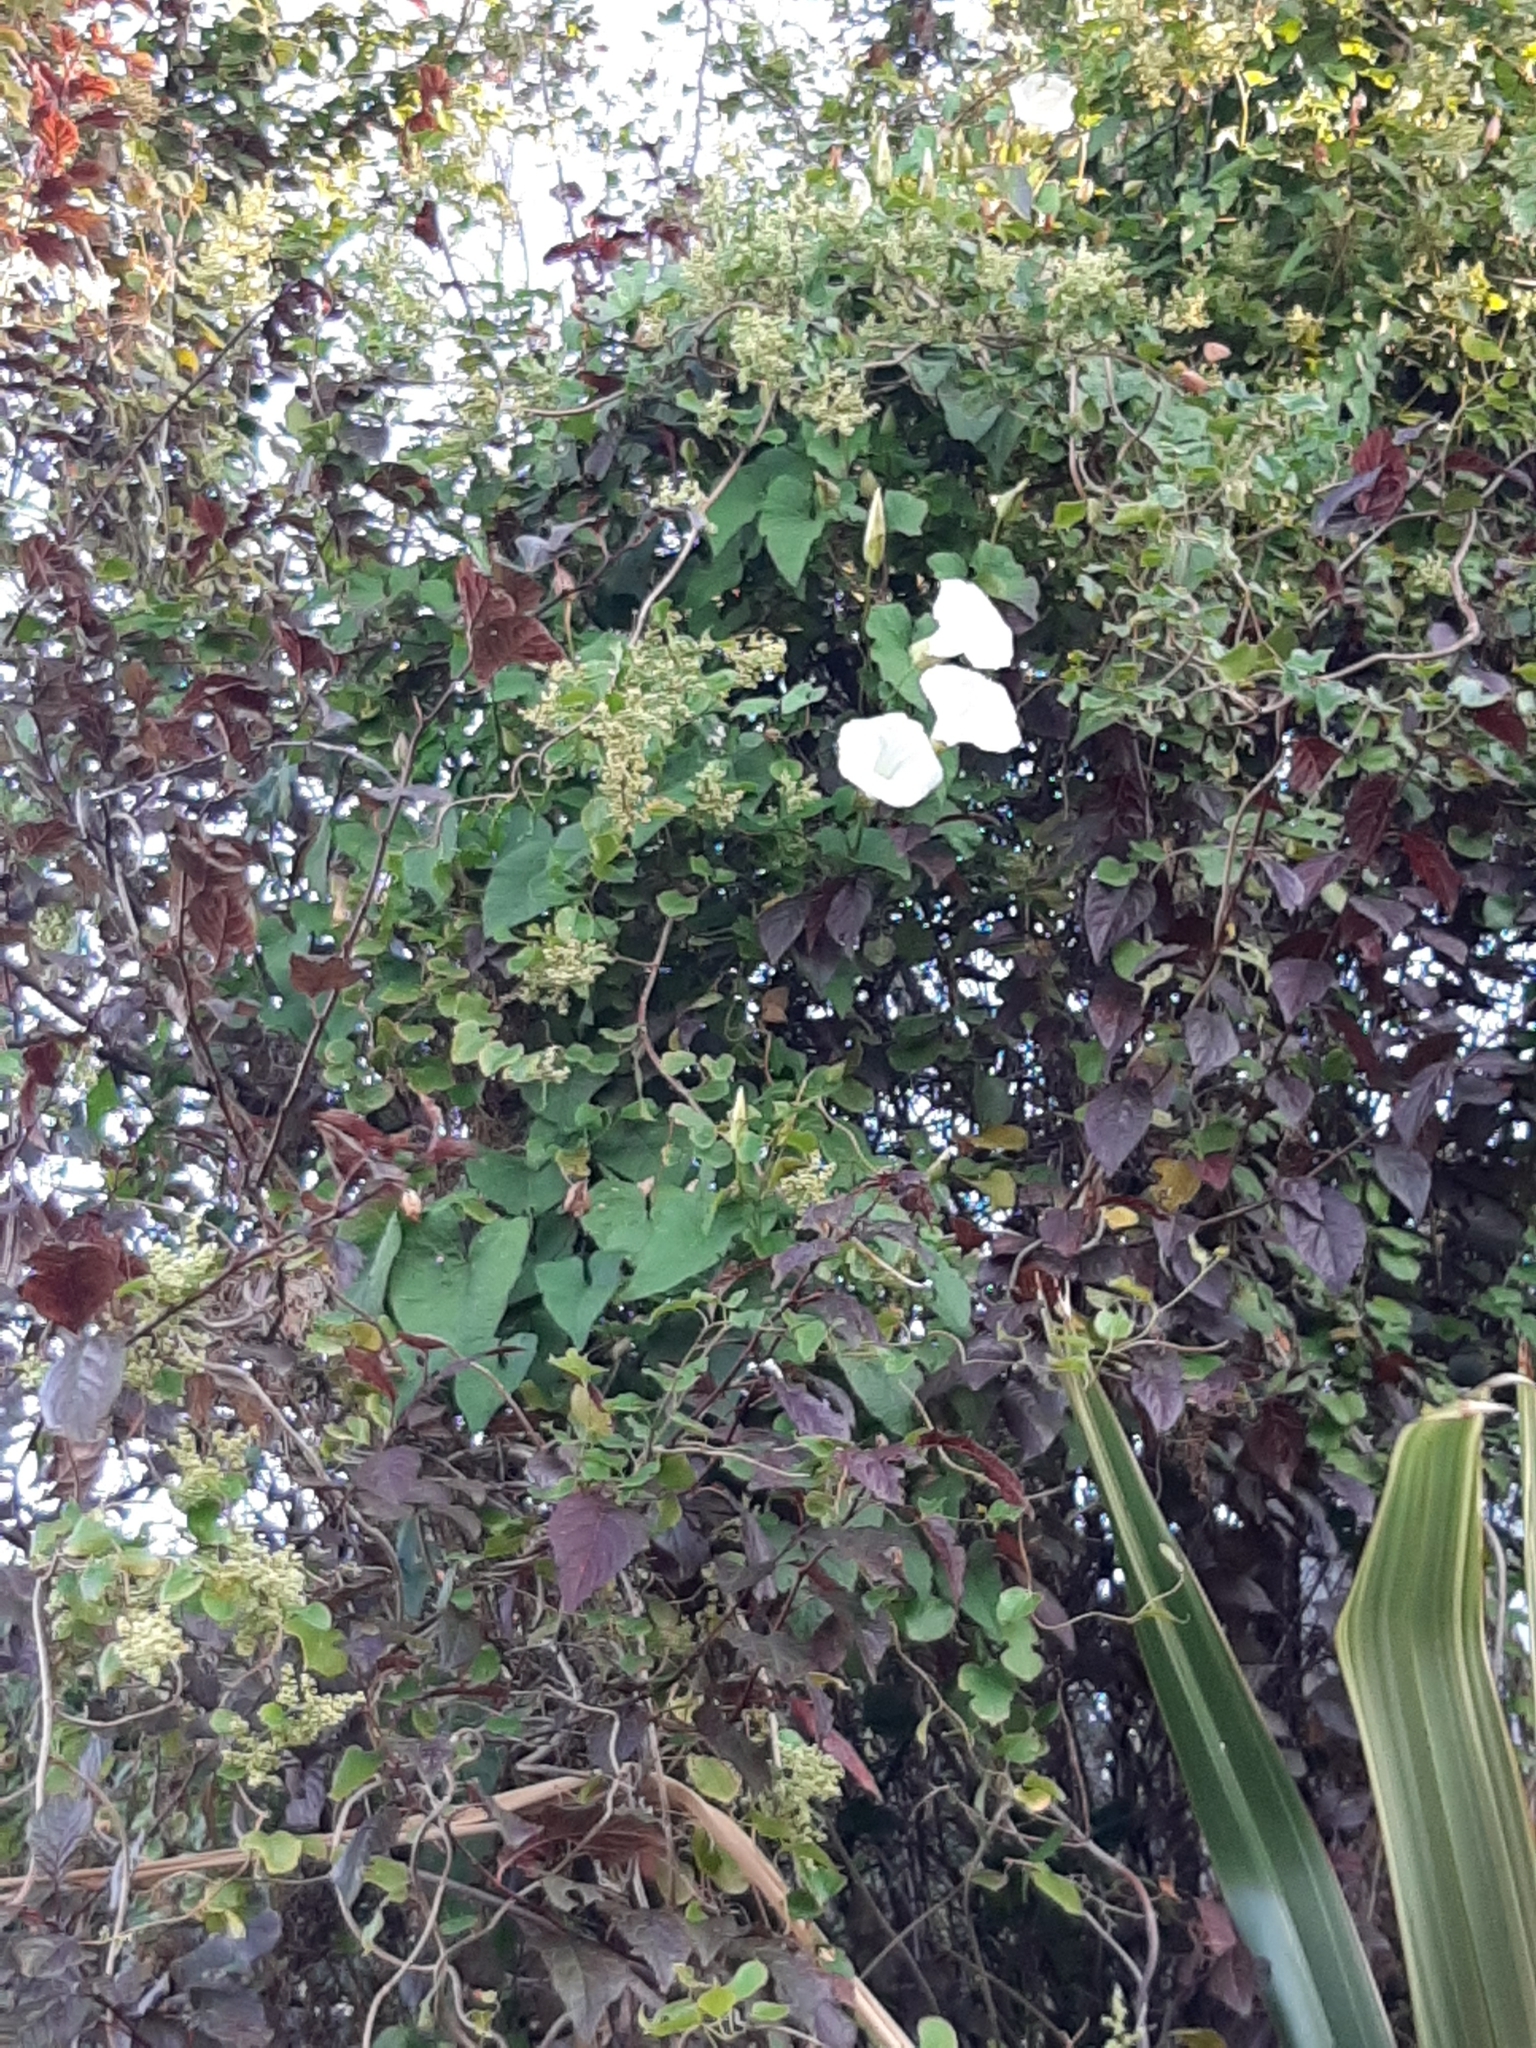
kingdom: Plantae
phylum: Tracheophyta
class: Magnoliopsida
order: Solanales
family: Convolvulaceae
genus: Calystegia
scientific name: Calystegia silvatica
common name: Large bindweed
